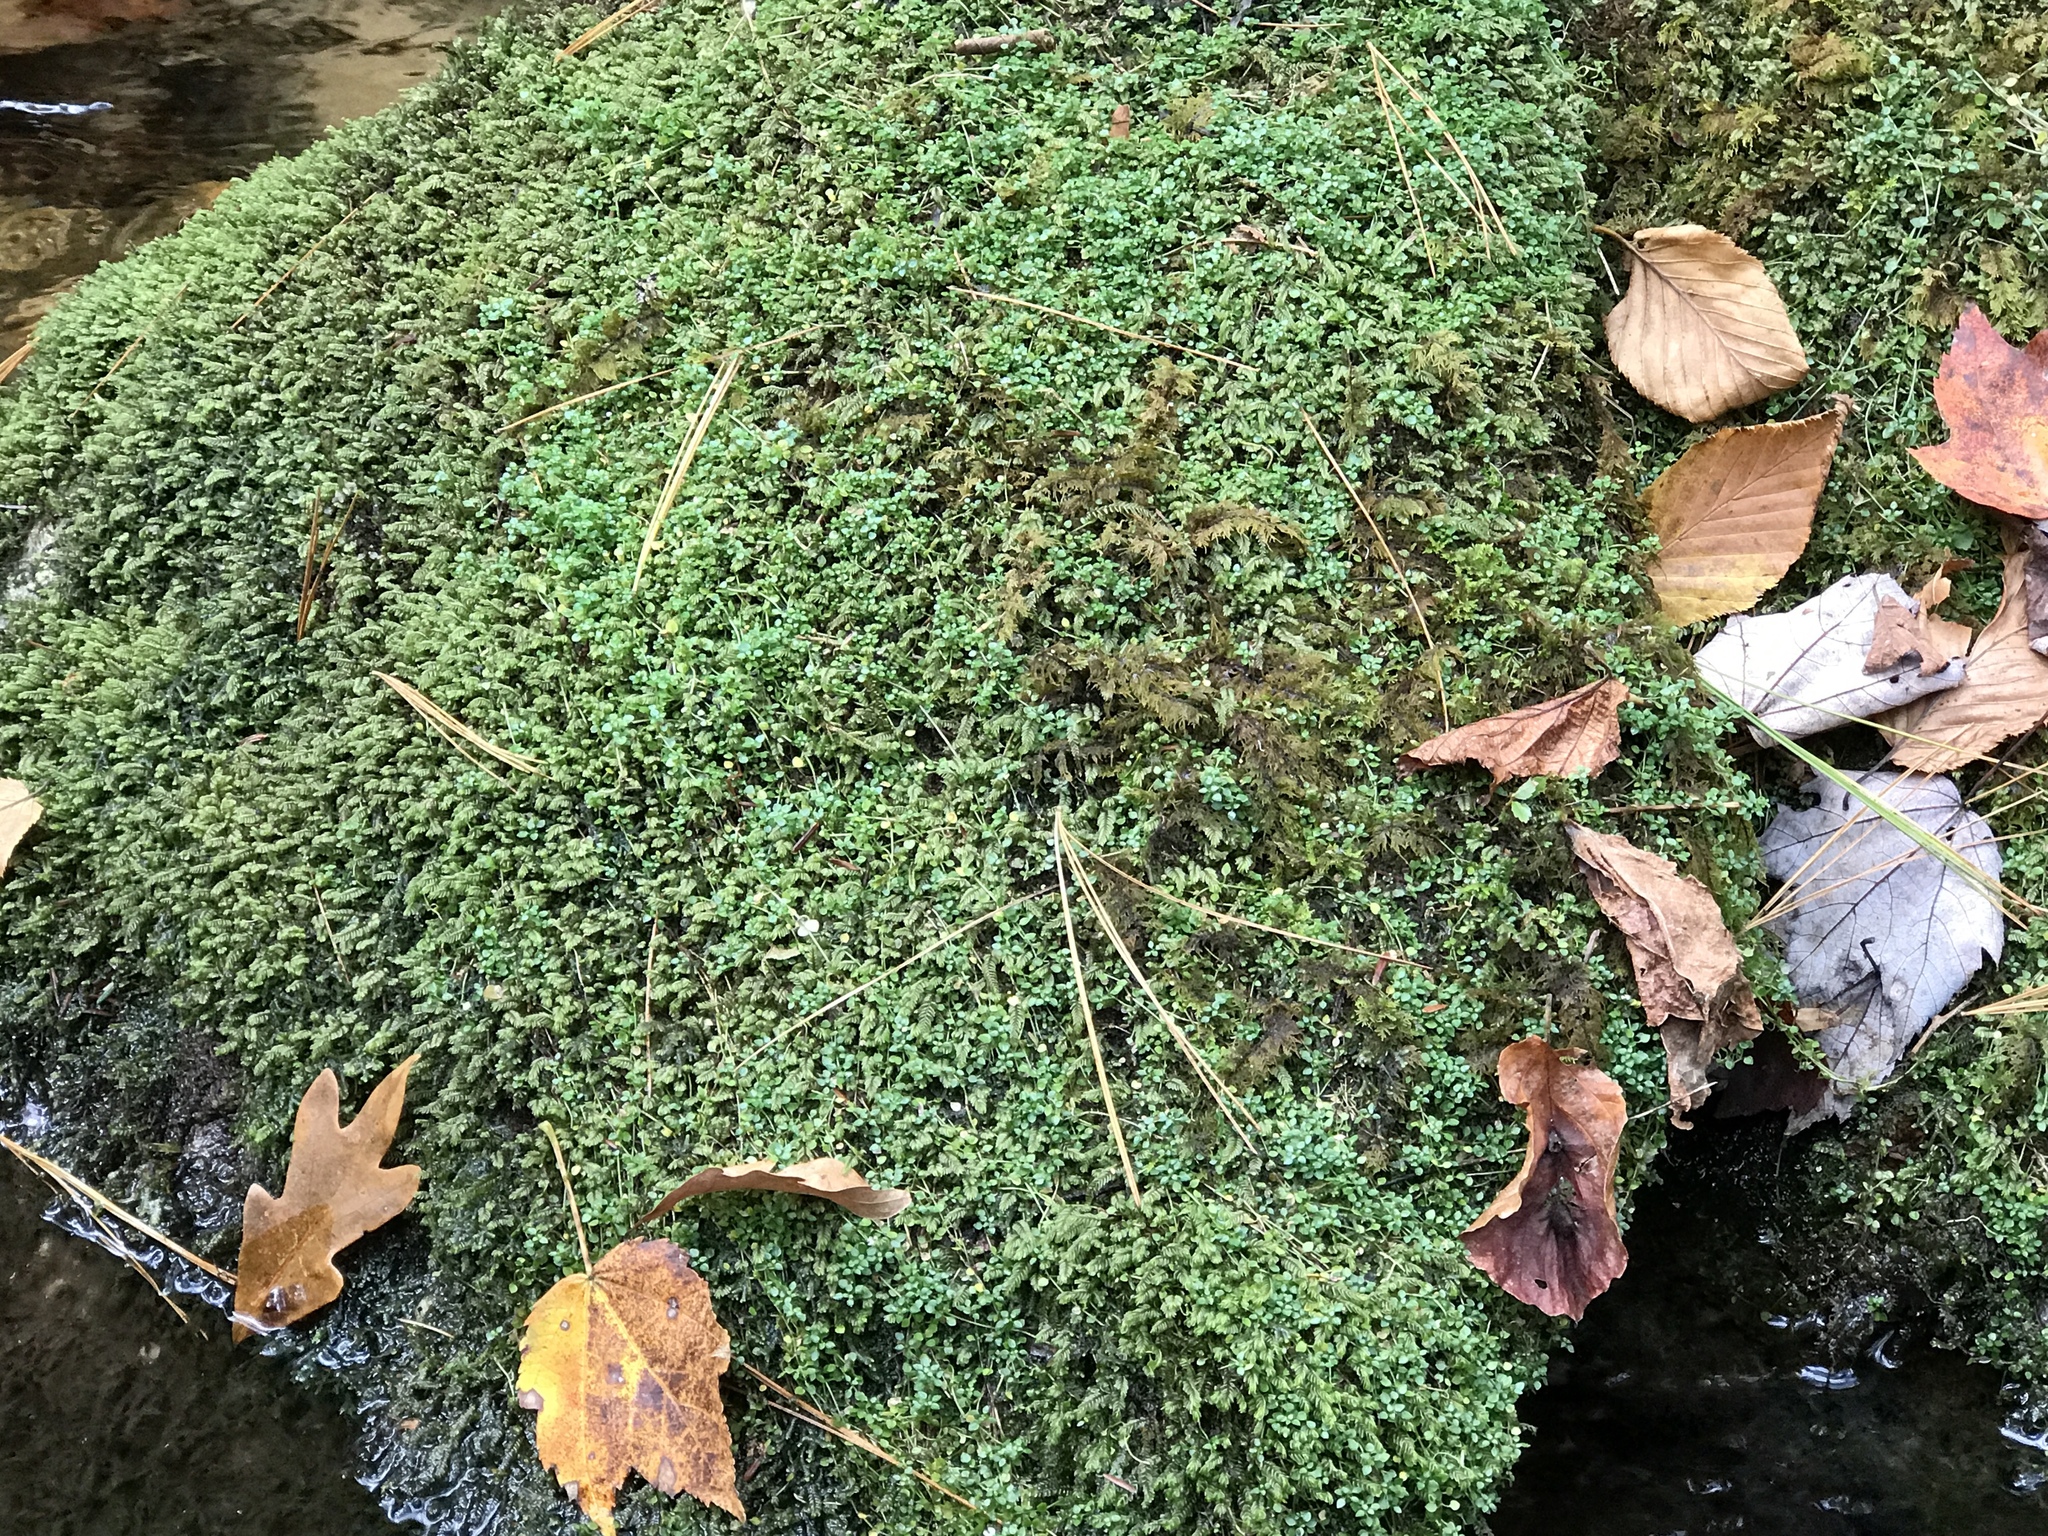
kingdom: Plantae
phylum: Tracheophyta
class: Magnoliopsida
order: Gentianales
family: Rubiaceae
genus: Houstonia
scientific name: Houstonia serpyllifolia
